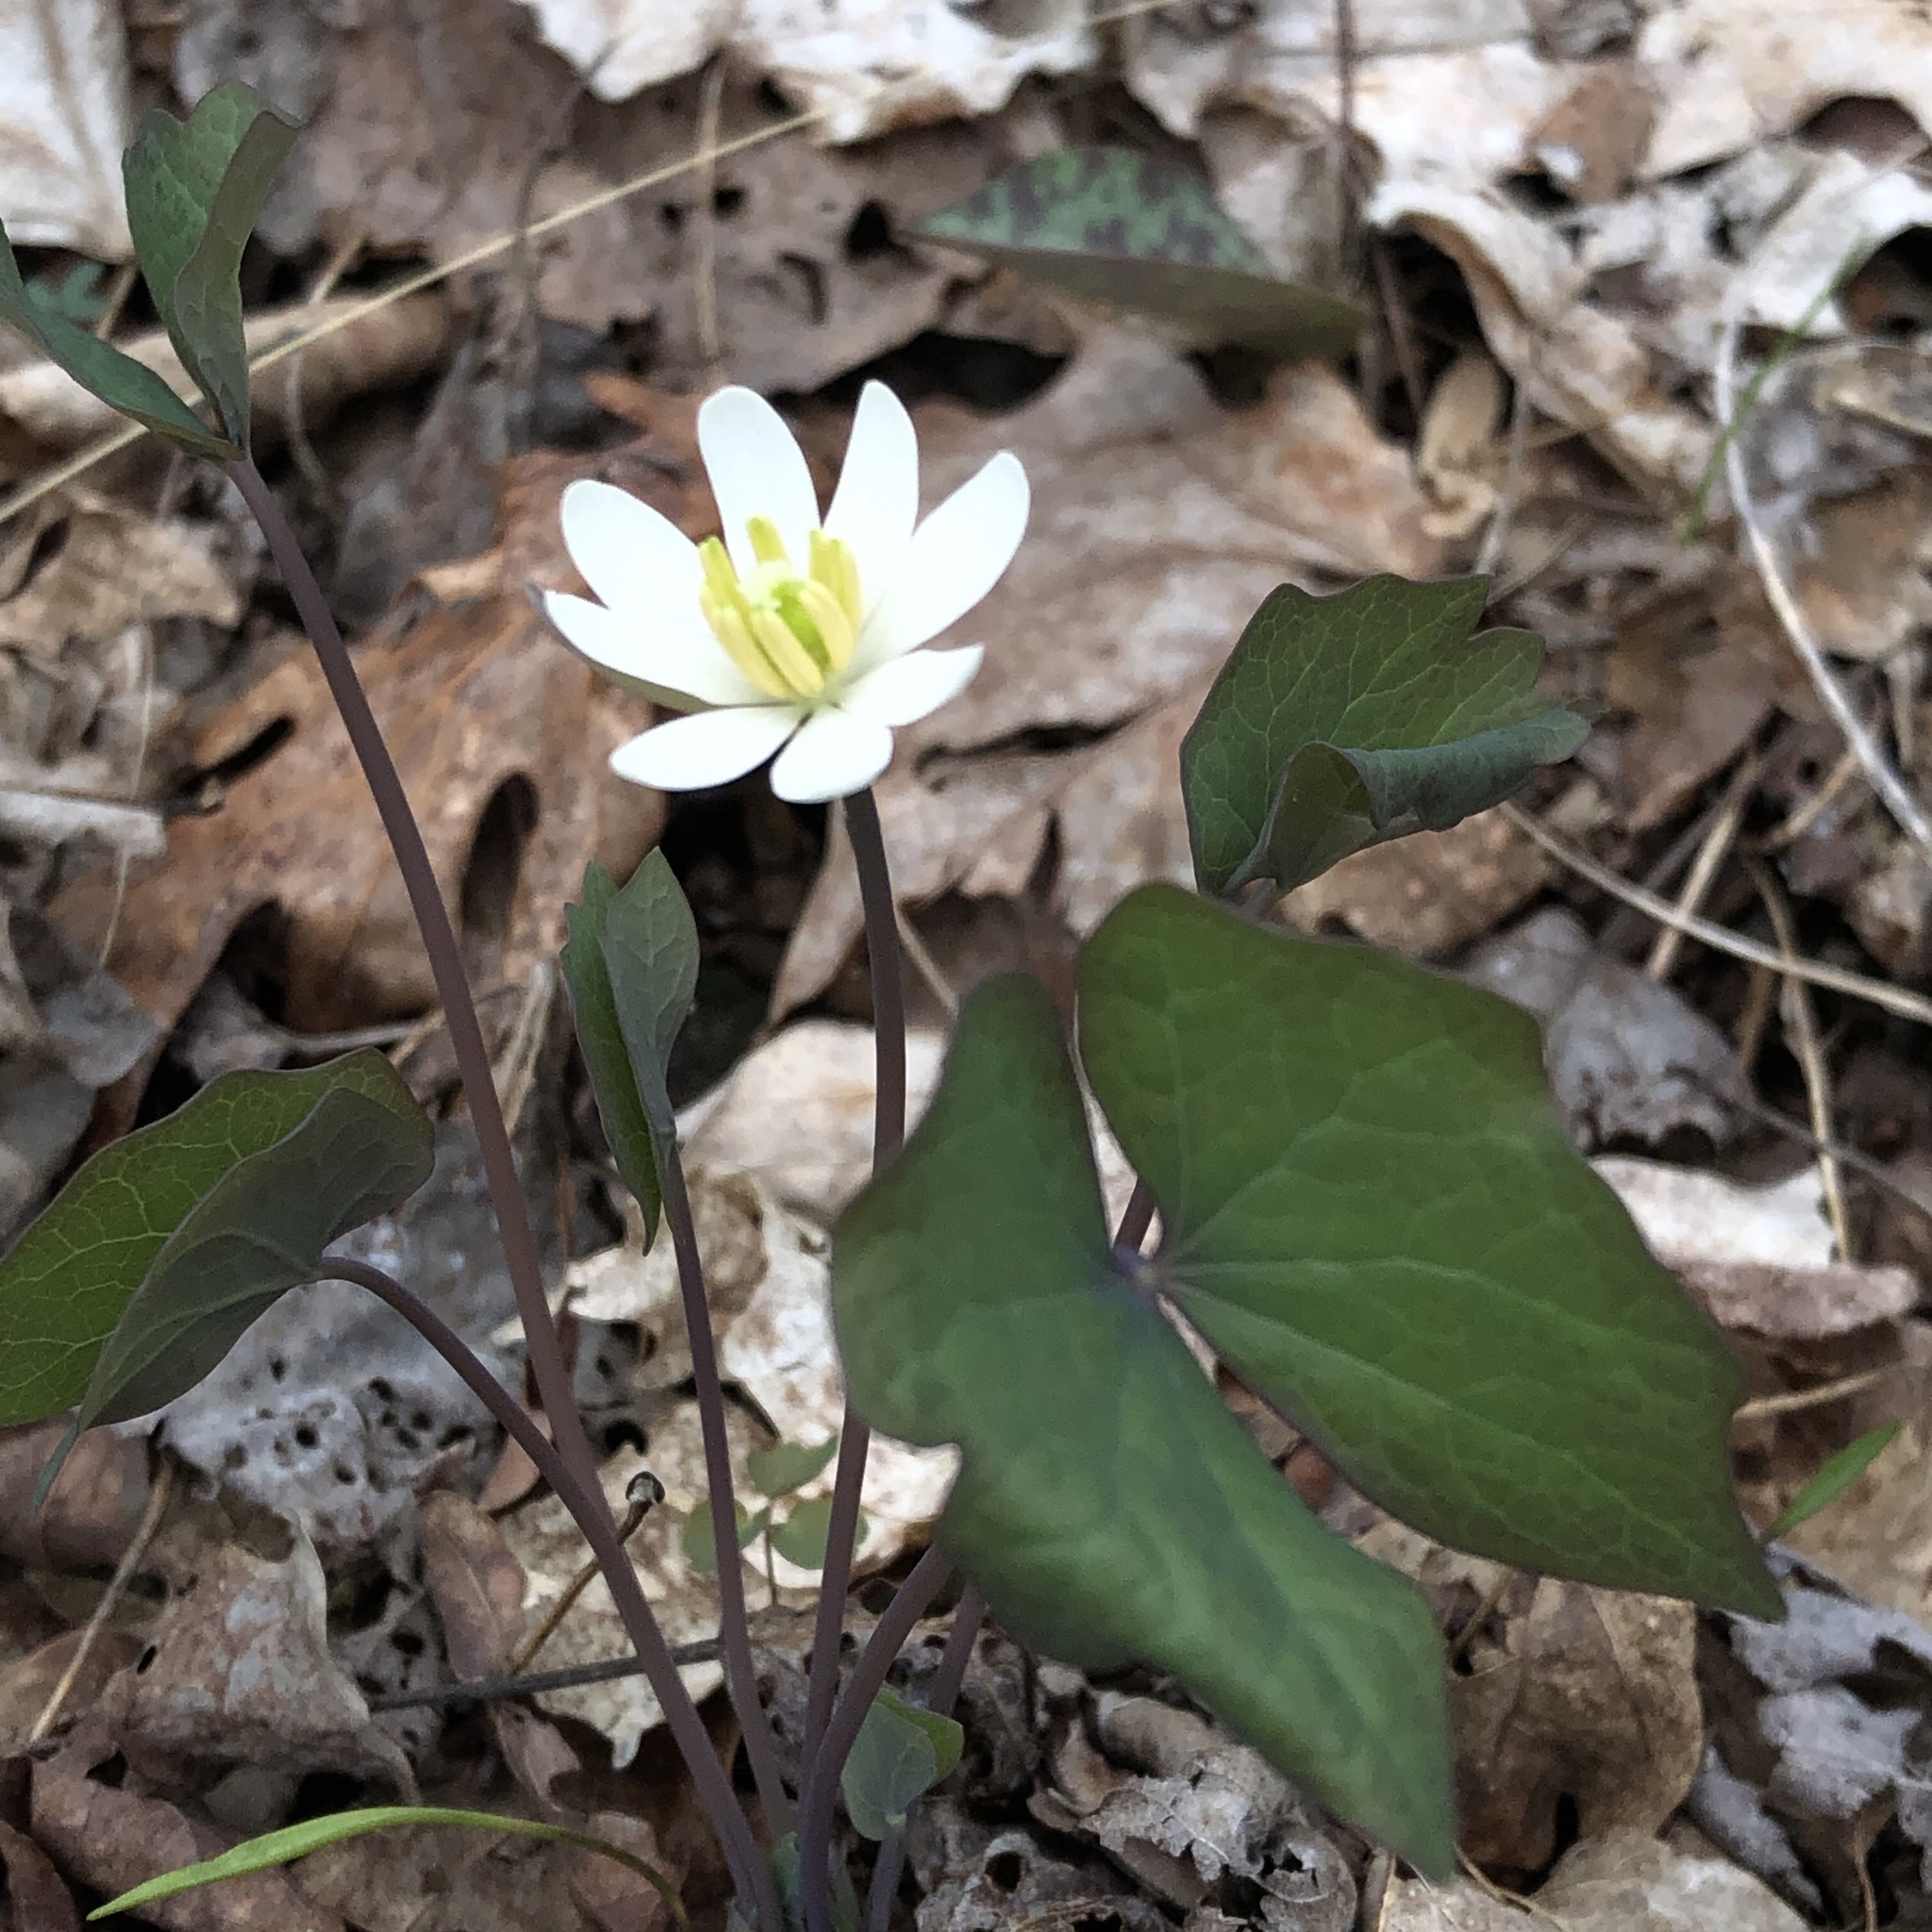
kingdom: Plantae
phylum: Tracheophyta
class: Magnoliopsida
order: Ranunculales
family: Berberidaceae
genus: Jeffersonia
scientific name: Jeffersonia diphylla
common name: Rheumatism-root
